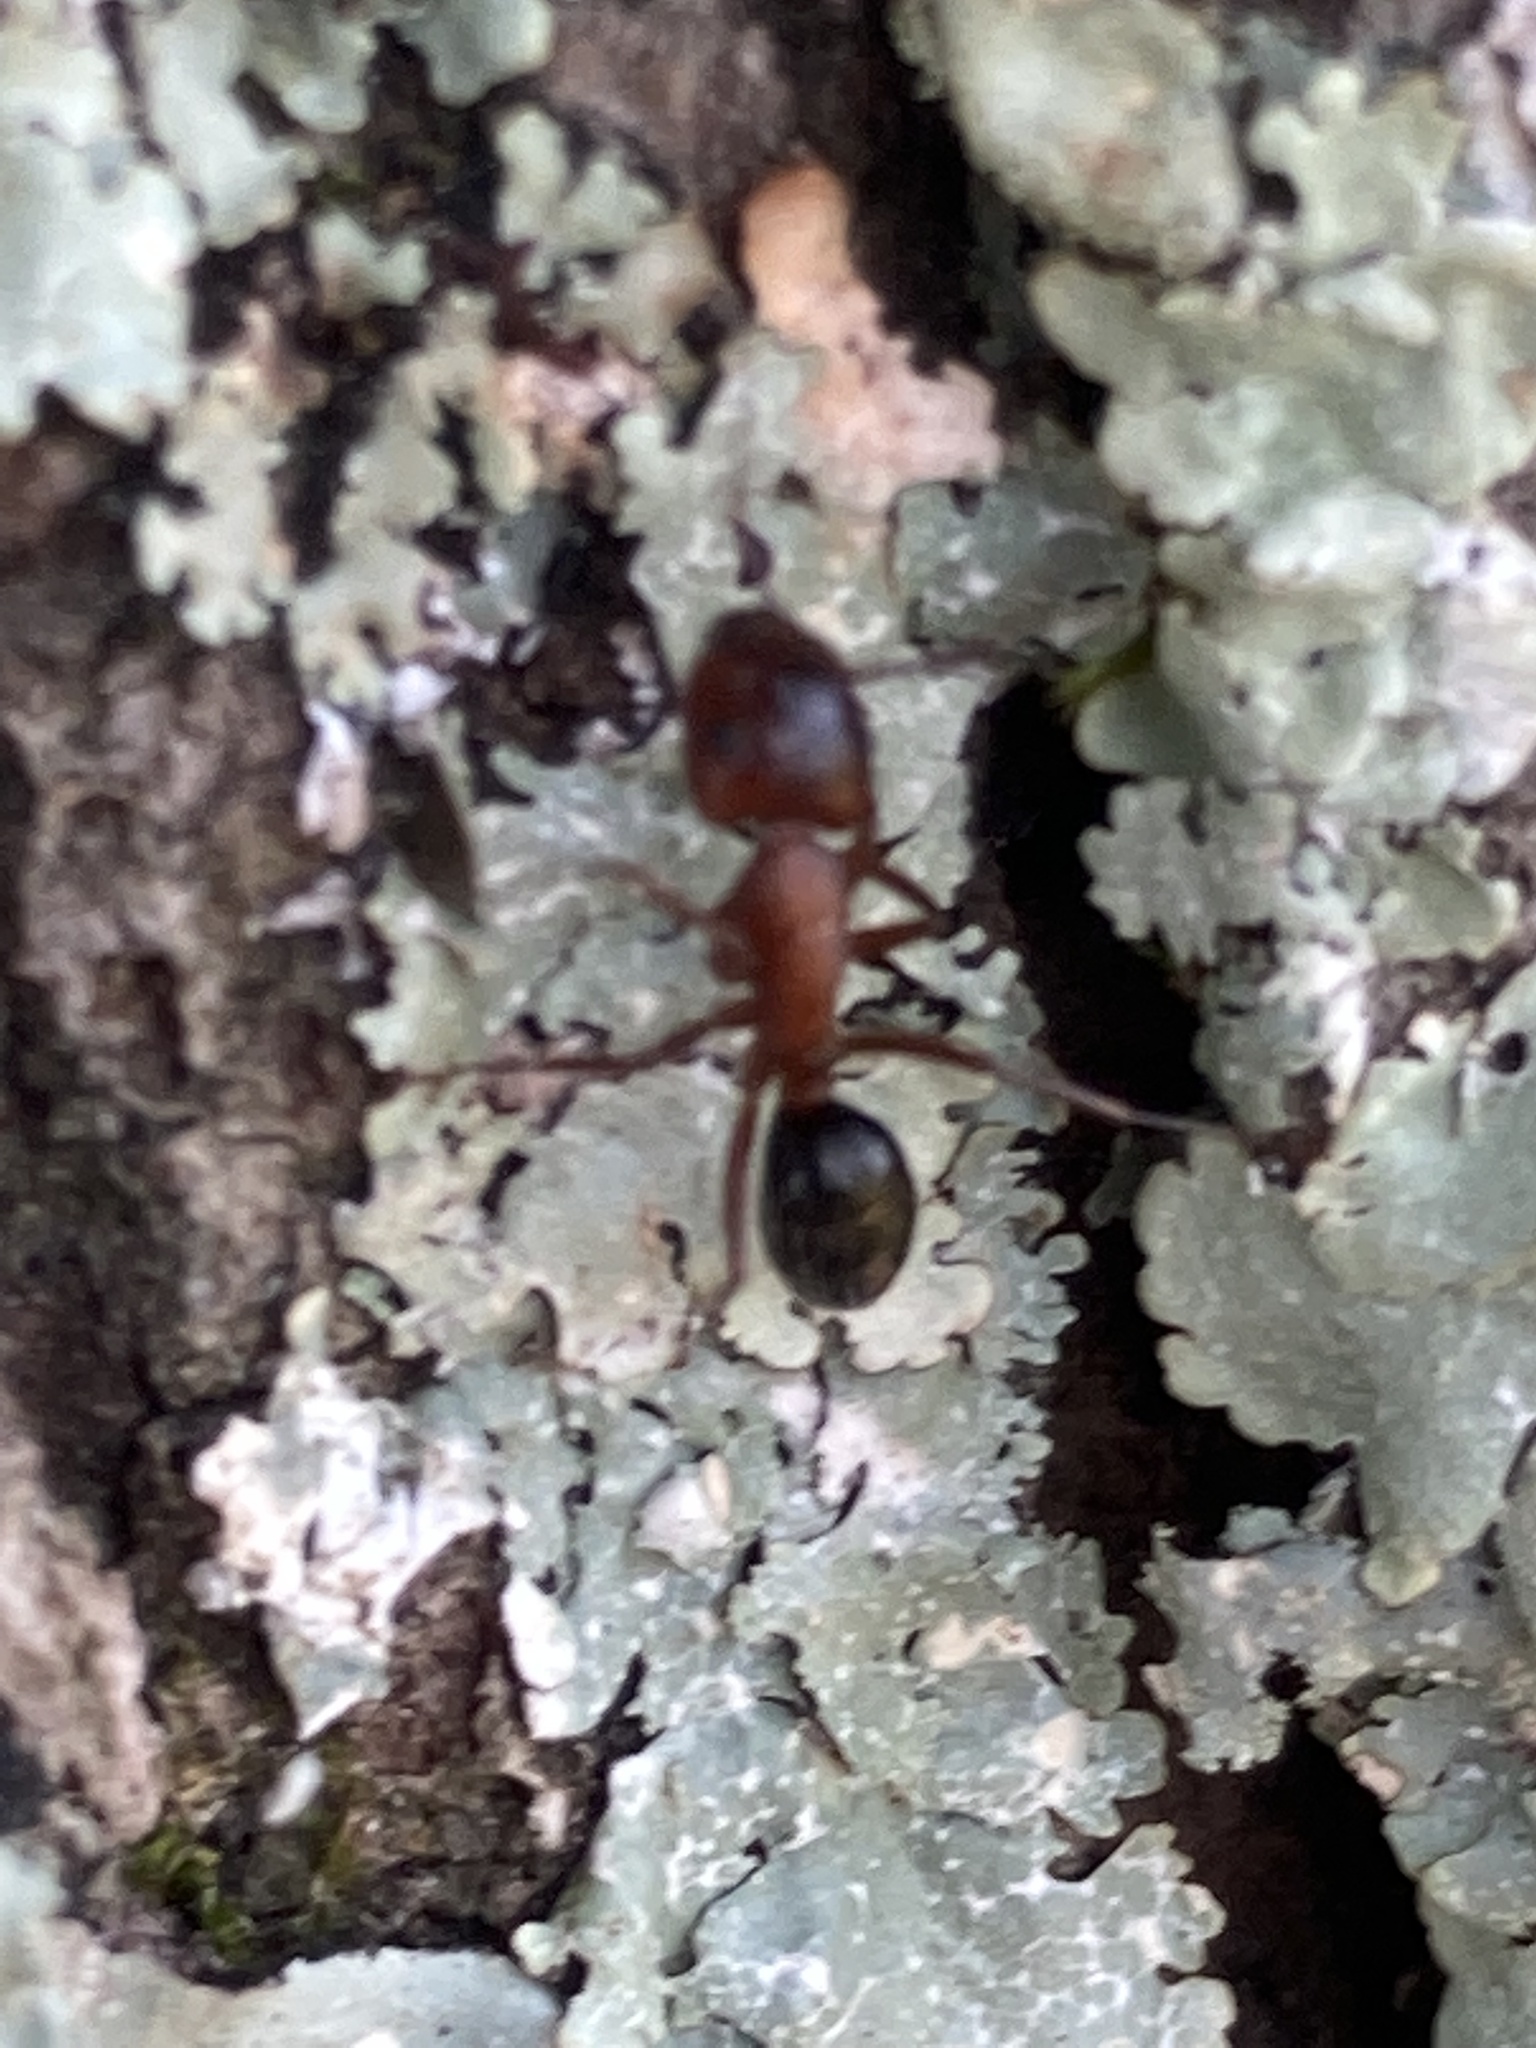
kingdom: Animalia
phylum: Arthropoda
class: Insecta
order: Hymenoptera
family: Formicidae
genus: Camponotus
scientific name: Camponotus decipiens
